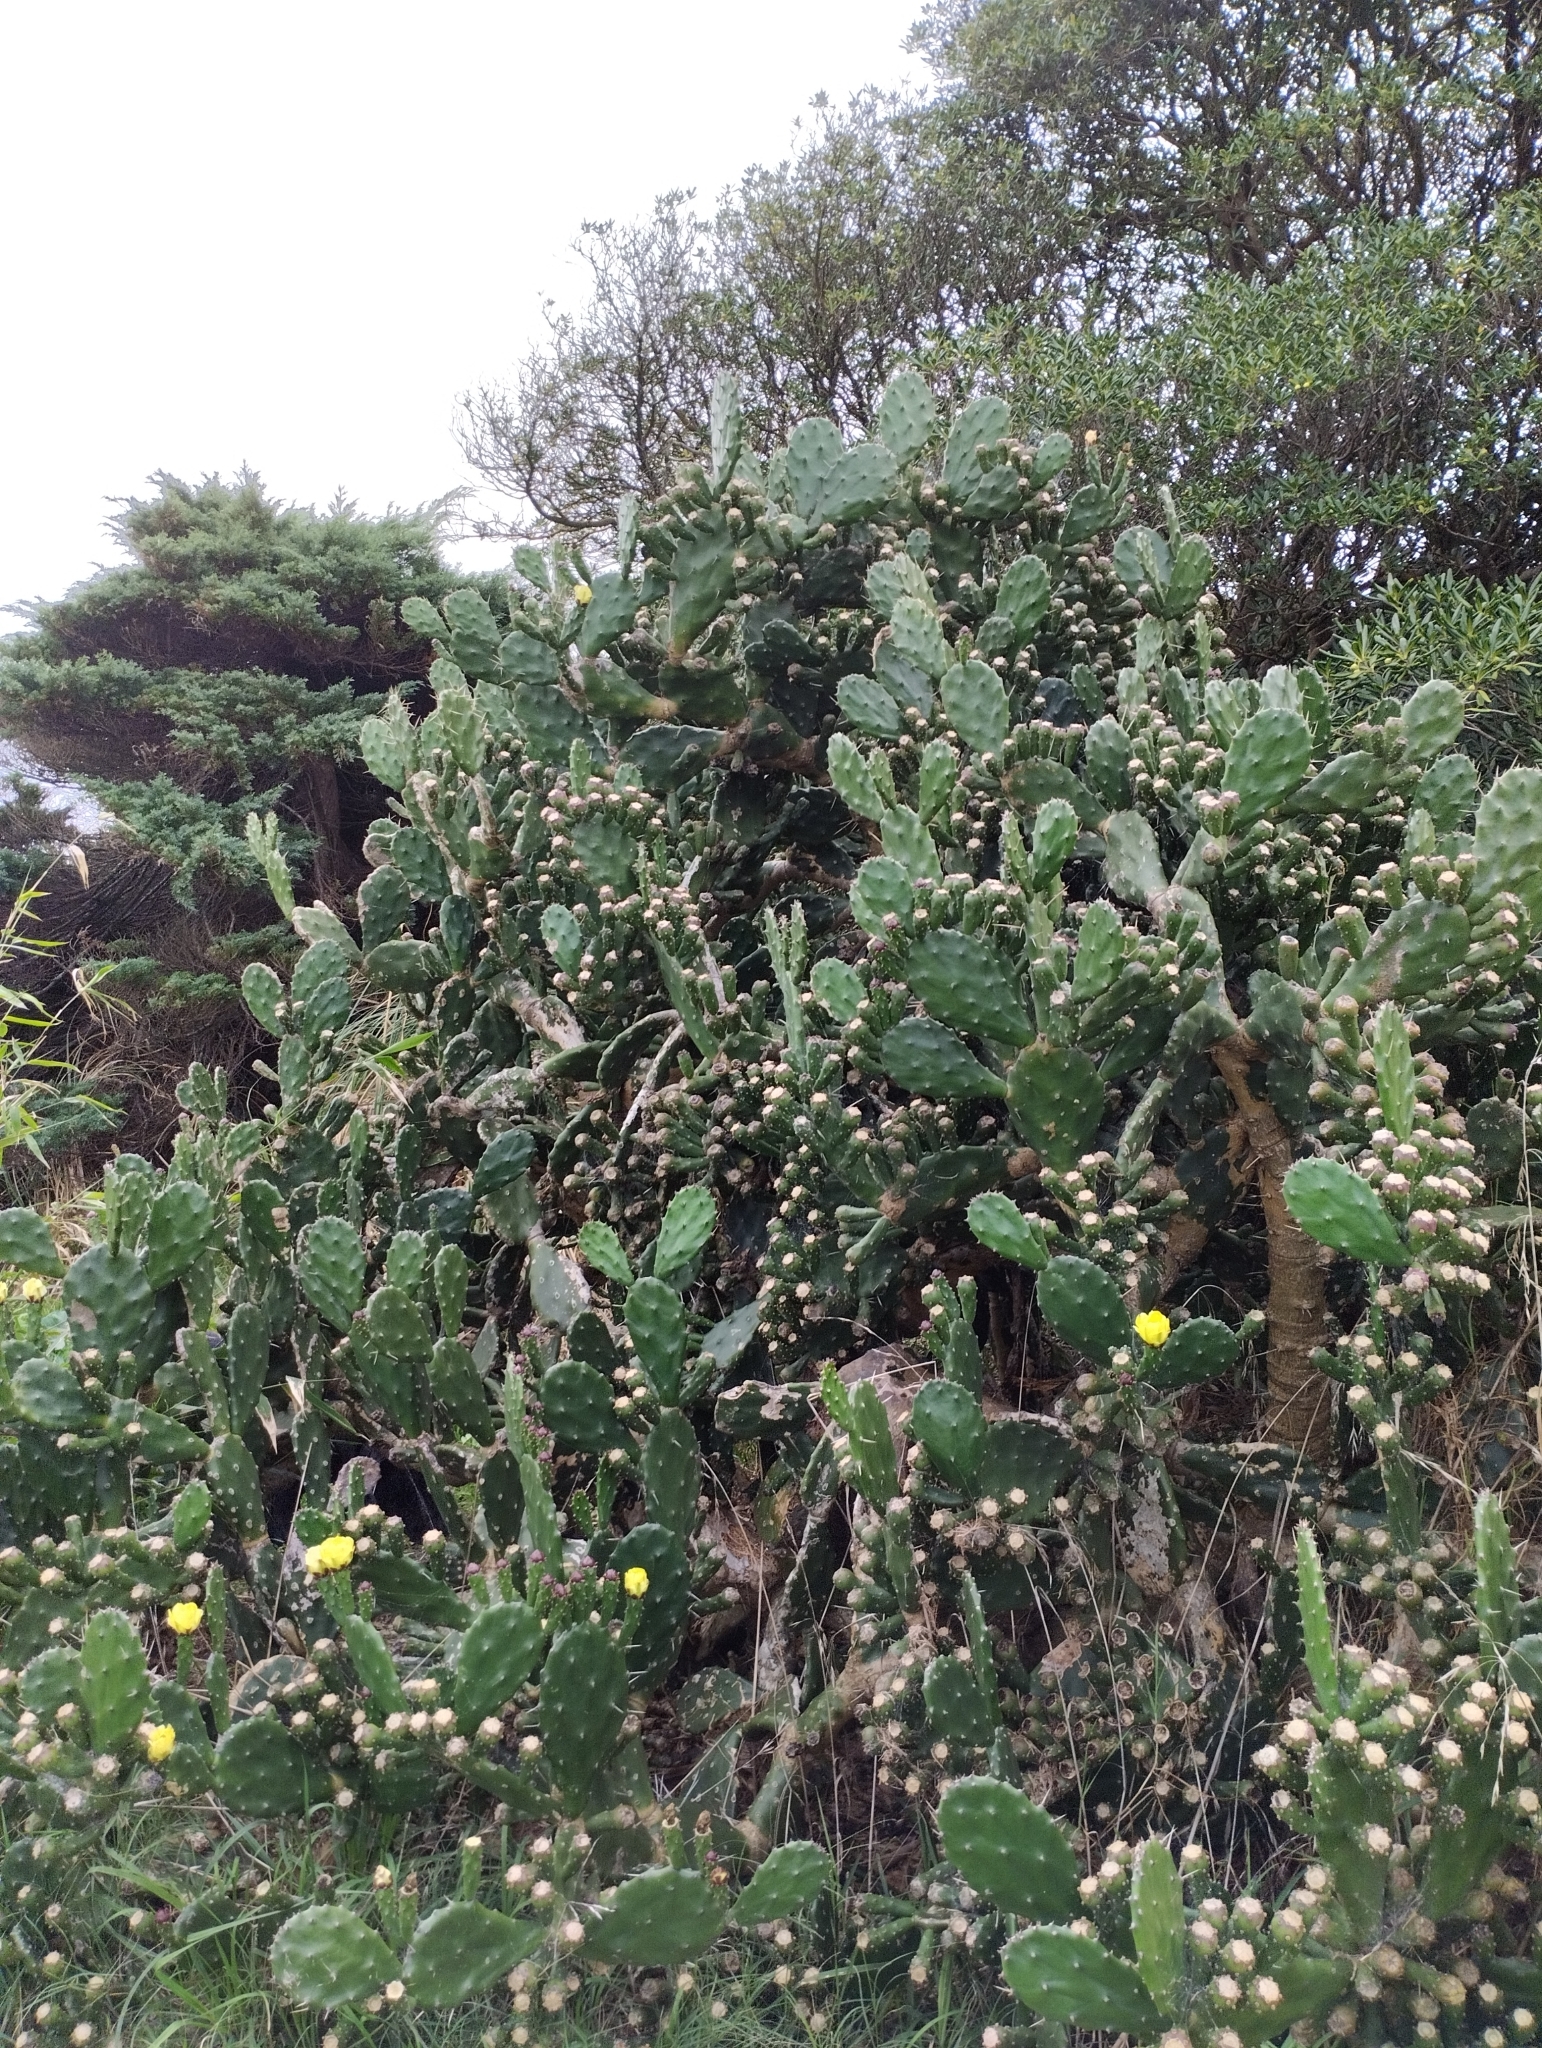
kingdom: Plantae
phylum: Tracheophyta
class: Magnoliopsida
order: Caryophyllales
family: Cactaceae
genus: Opuntia
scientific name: Opuntia arechavaletae
